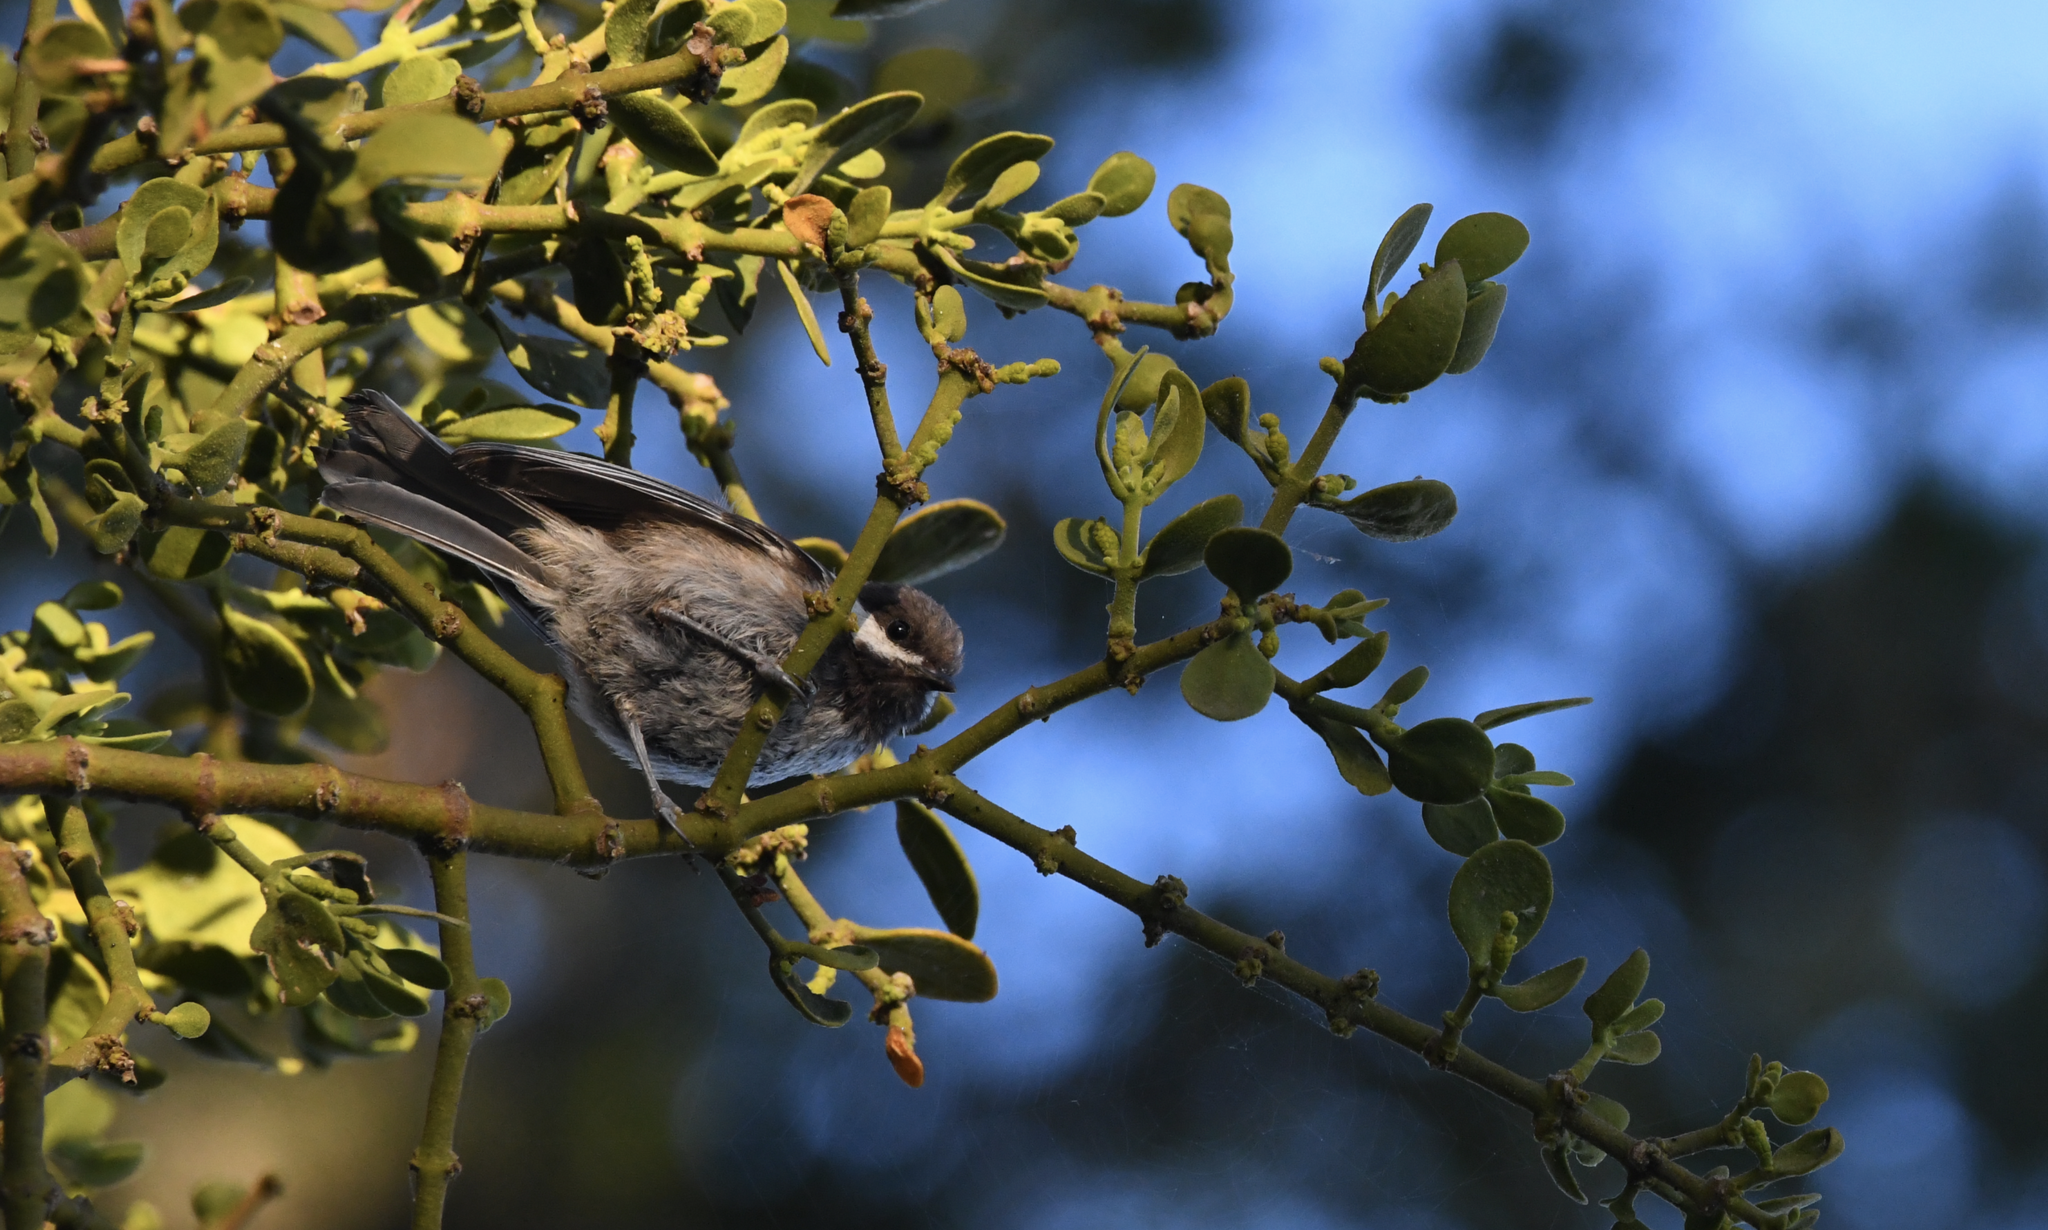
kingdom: Animalia
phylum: Chordata
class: Aves
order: Passeriformes
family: Paridae
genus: Poecile
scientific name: Poecile rufescens
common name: Chestnut-backed chickadee
